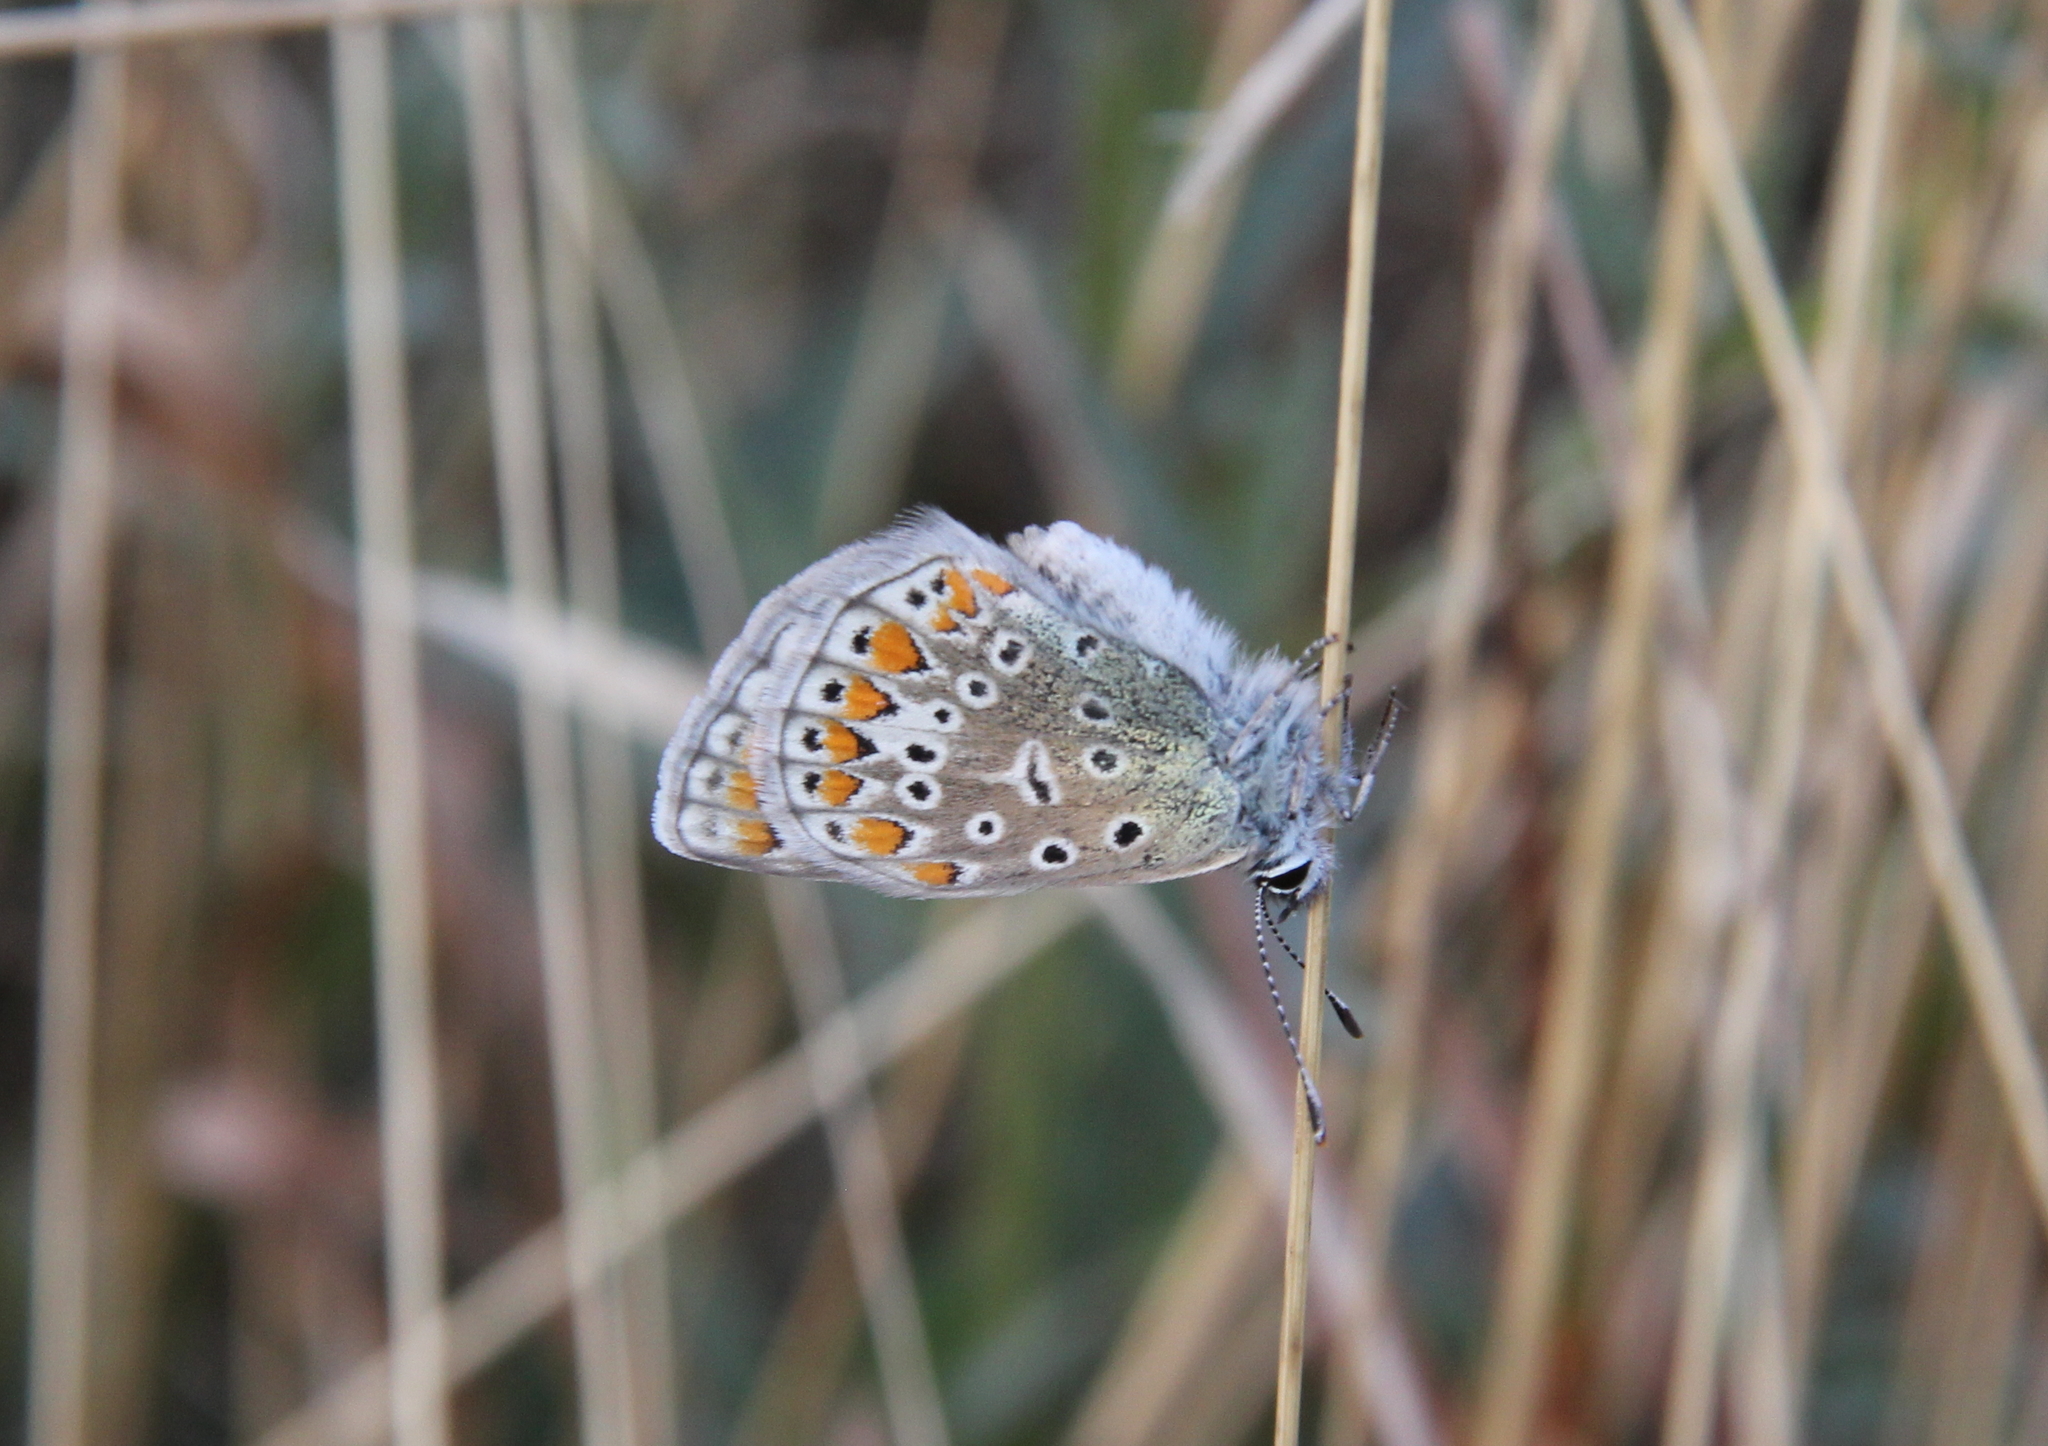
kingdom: Animalia
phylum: Arthropoda
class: Insecta
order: Lepidoptera
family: Lycaenidae
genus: Polyommatus
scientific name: Polyommatus icarus
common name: Common blue
